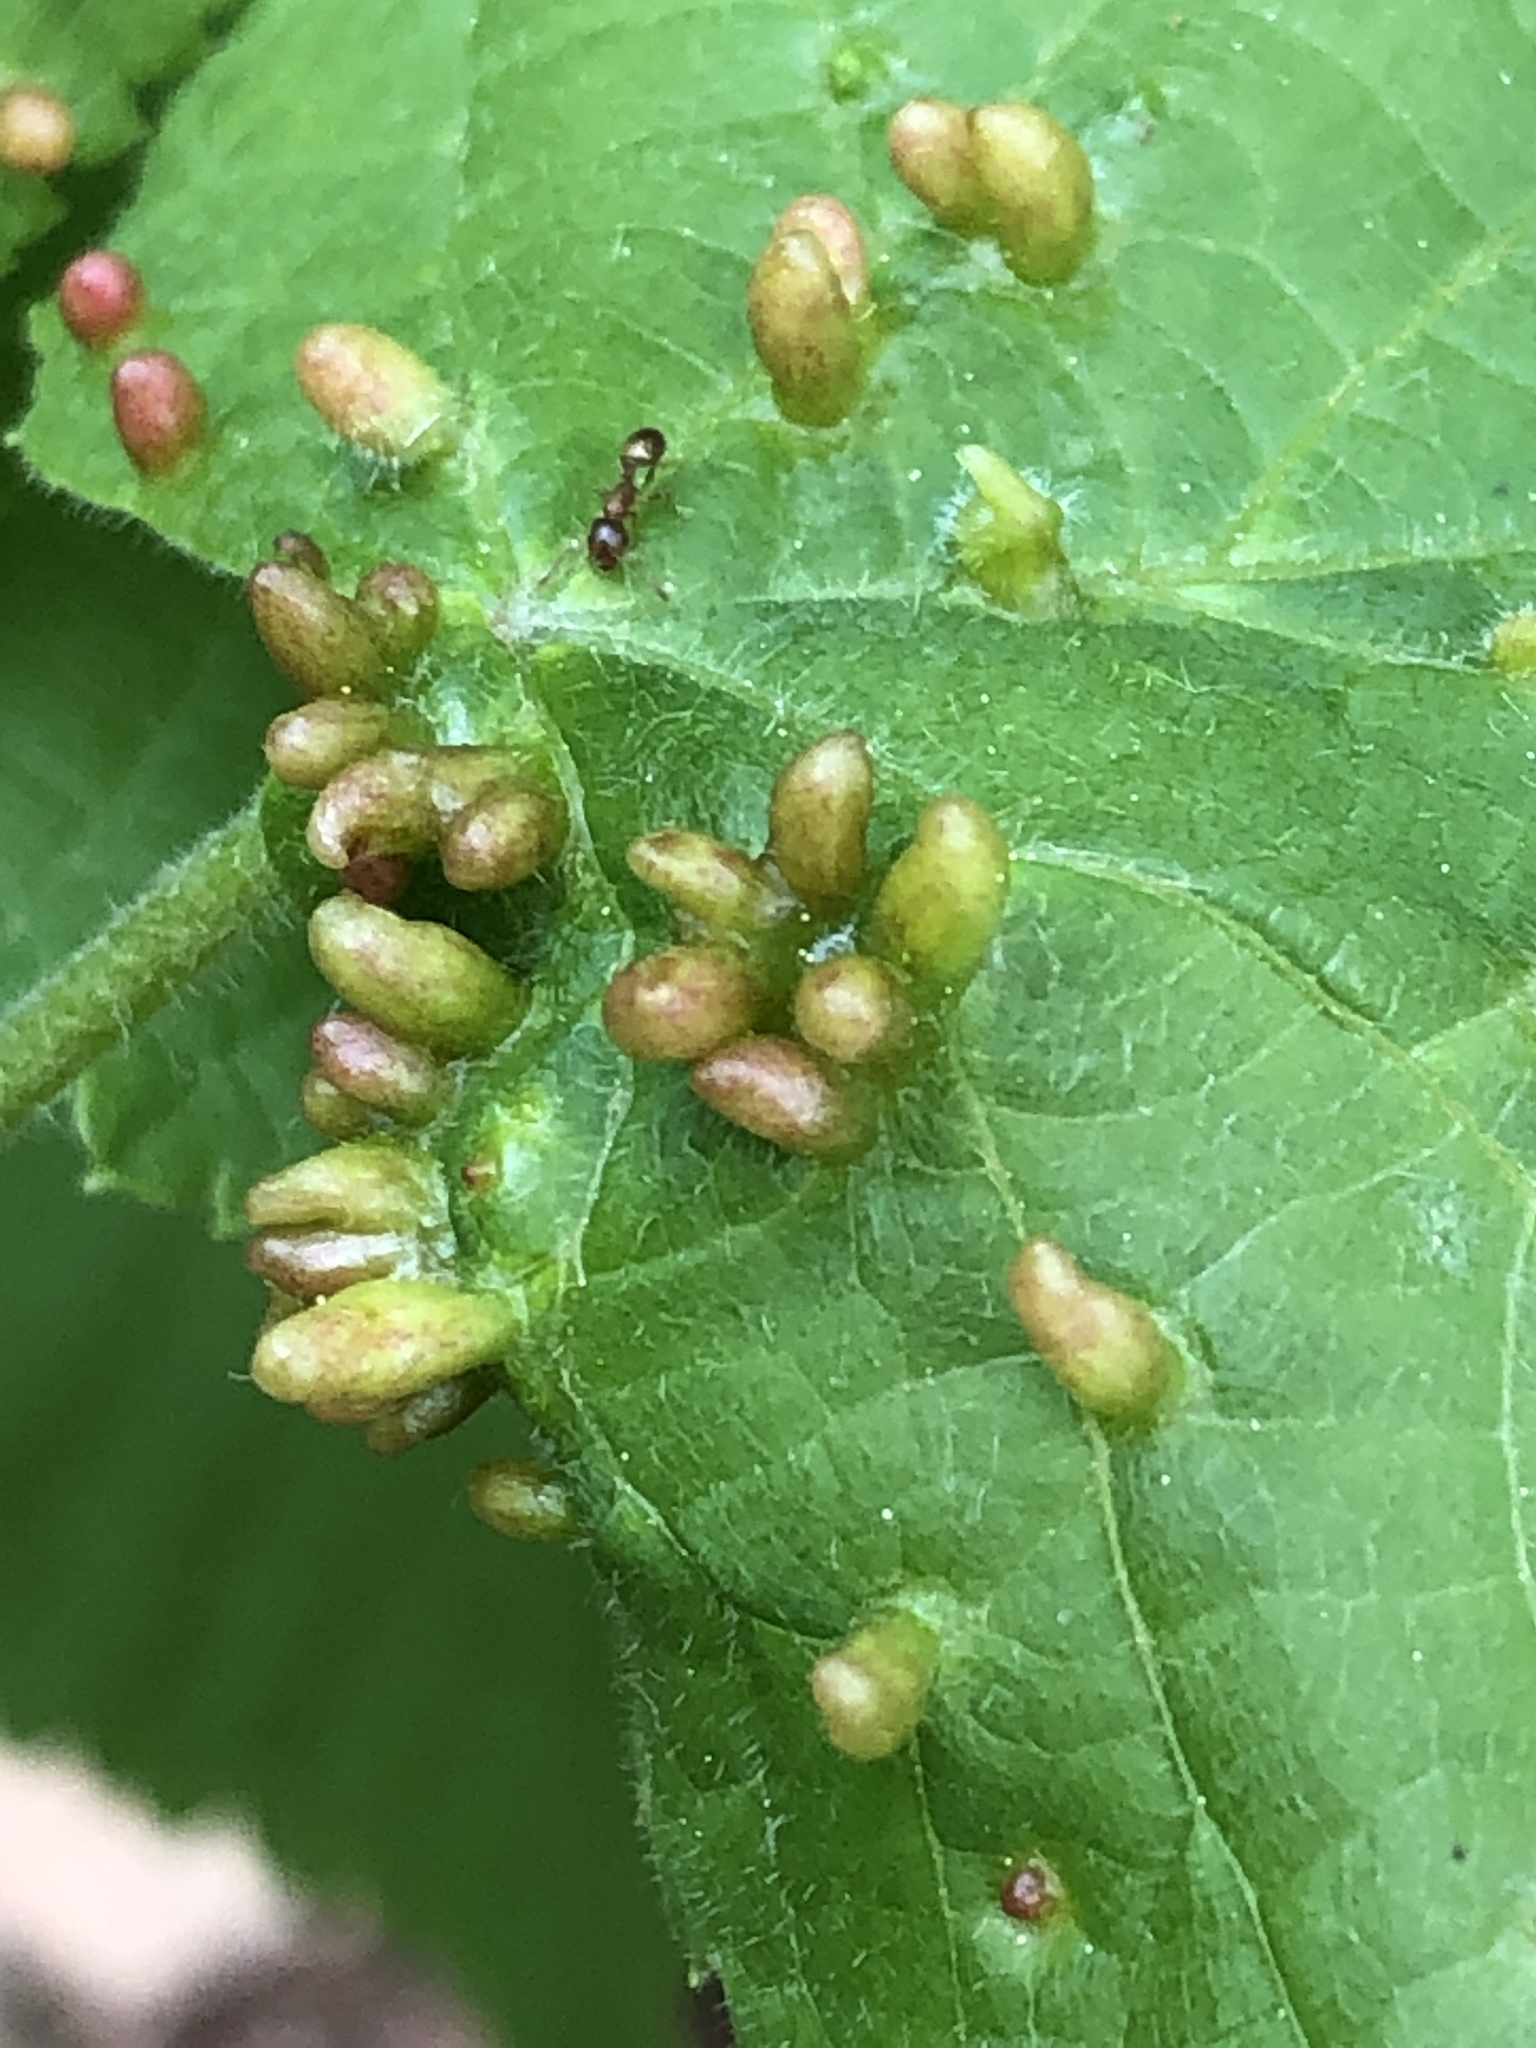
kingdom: Animalia
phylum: Arthropoda
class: Arachnida
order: Trombidiformes
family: Eriophyidae
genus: Eriophyes
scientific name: Eriophyes tiliae
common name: Red nail gall mite
